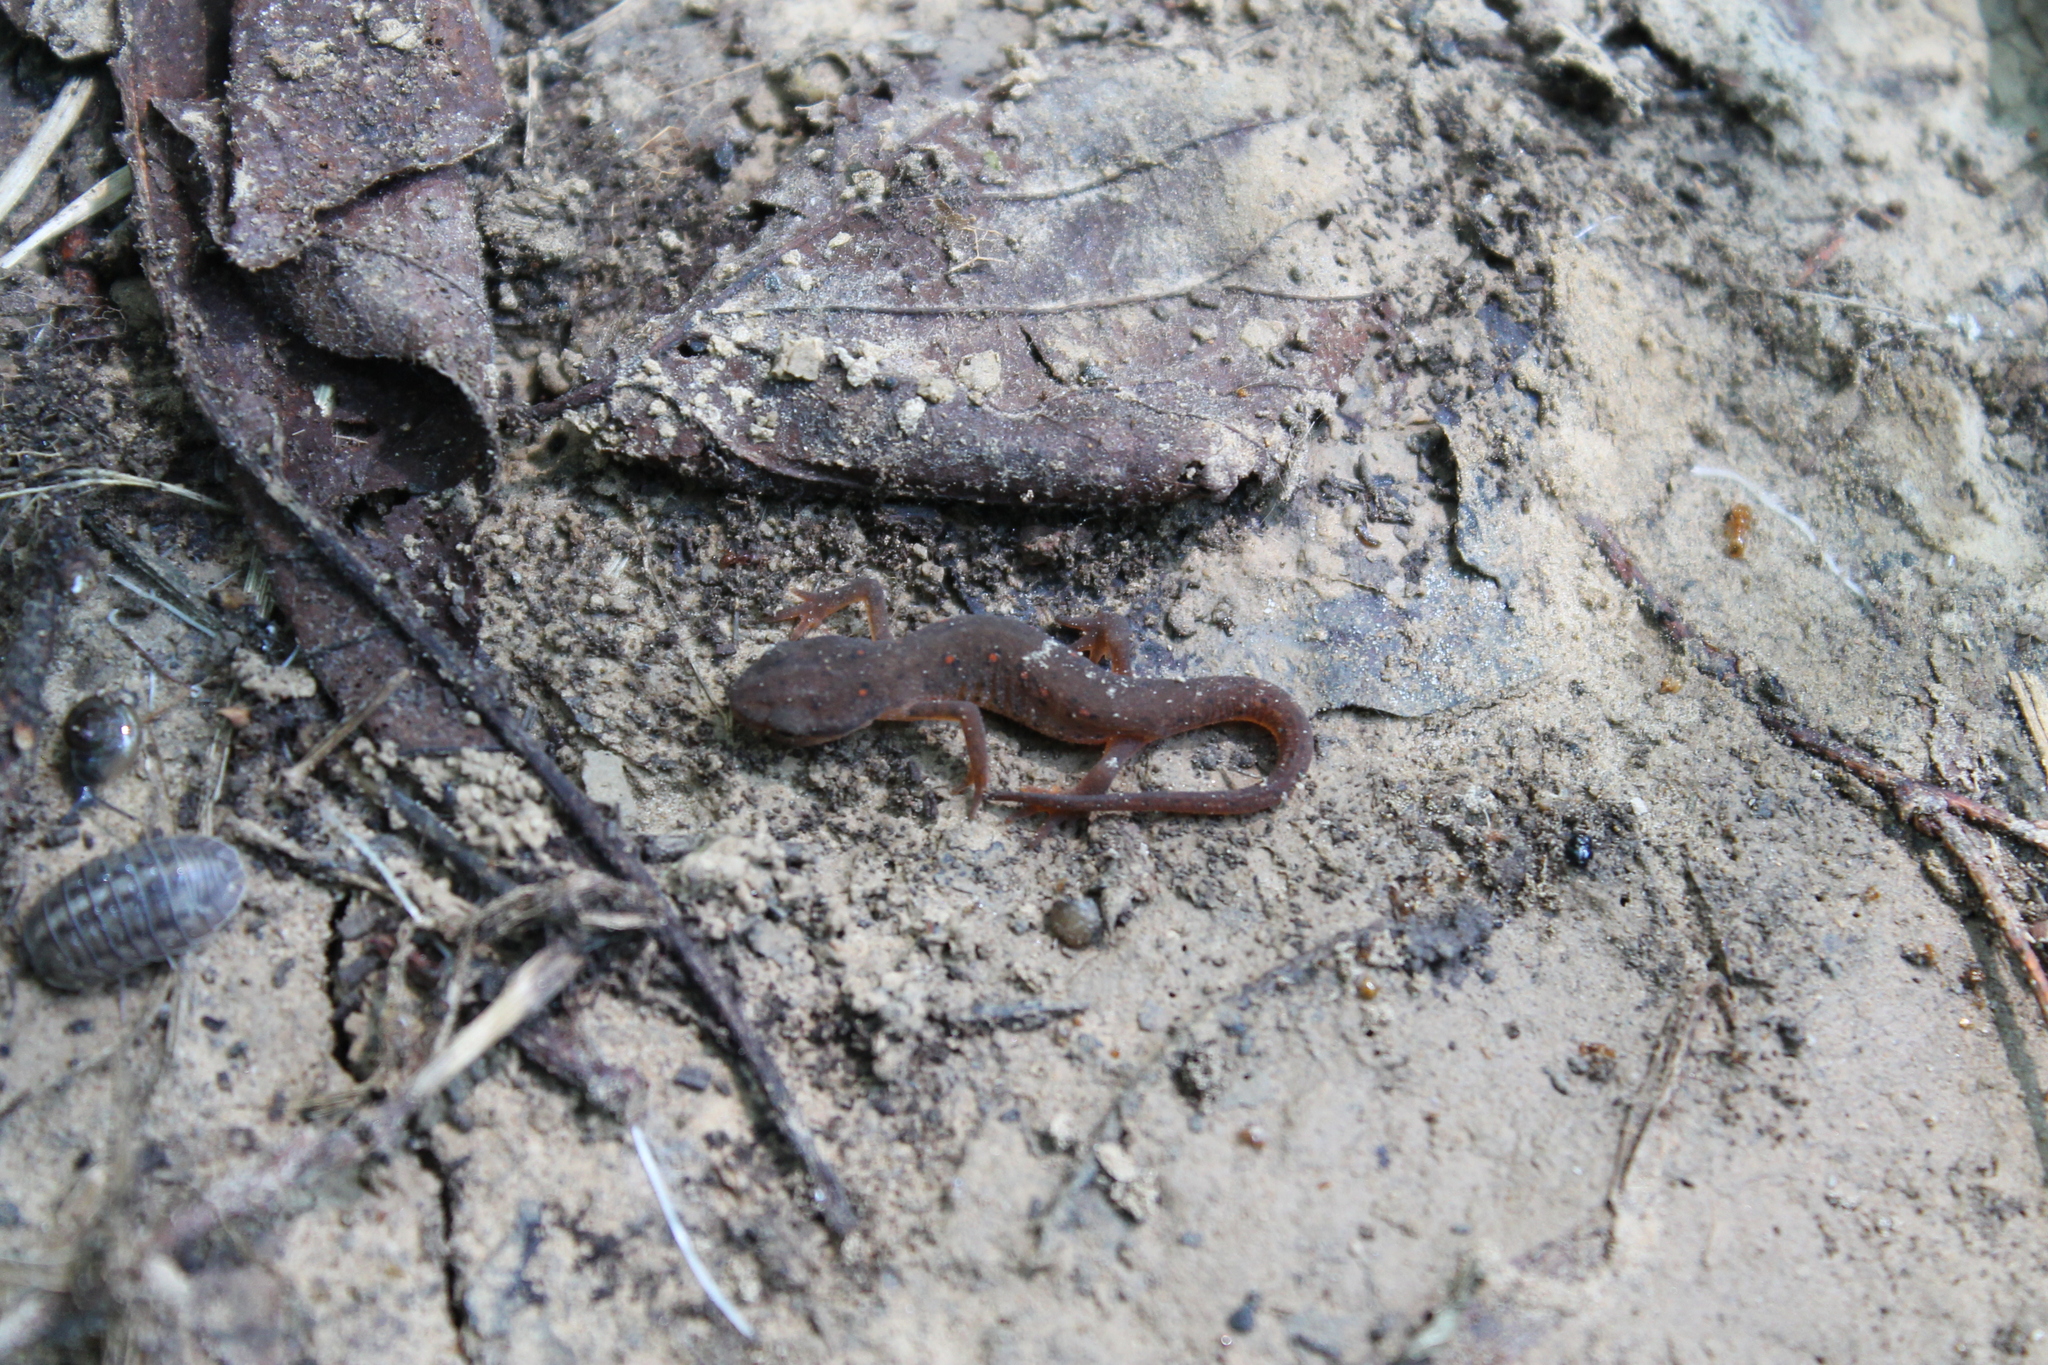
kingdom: Animalia
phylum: Chordata
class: Amphibia
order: Caudata
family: Salamandridae
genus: Notophthalmus
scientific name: Notophthalmus viridescens
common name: Eastern newt
